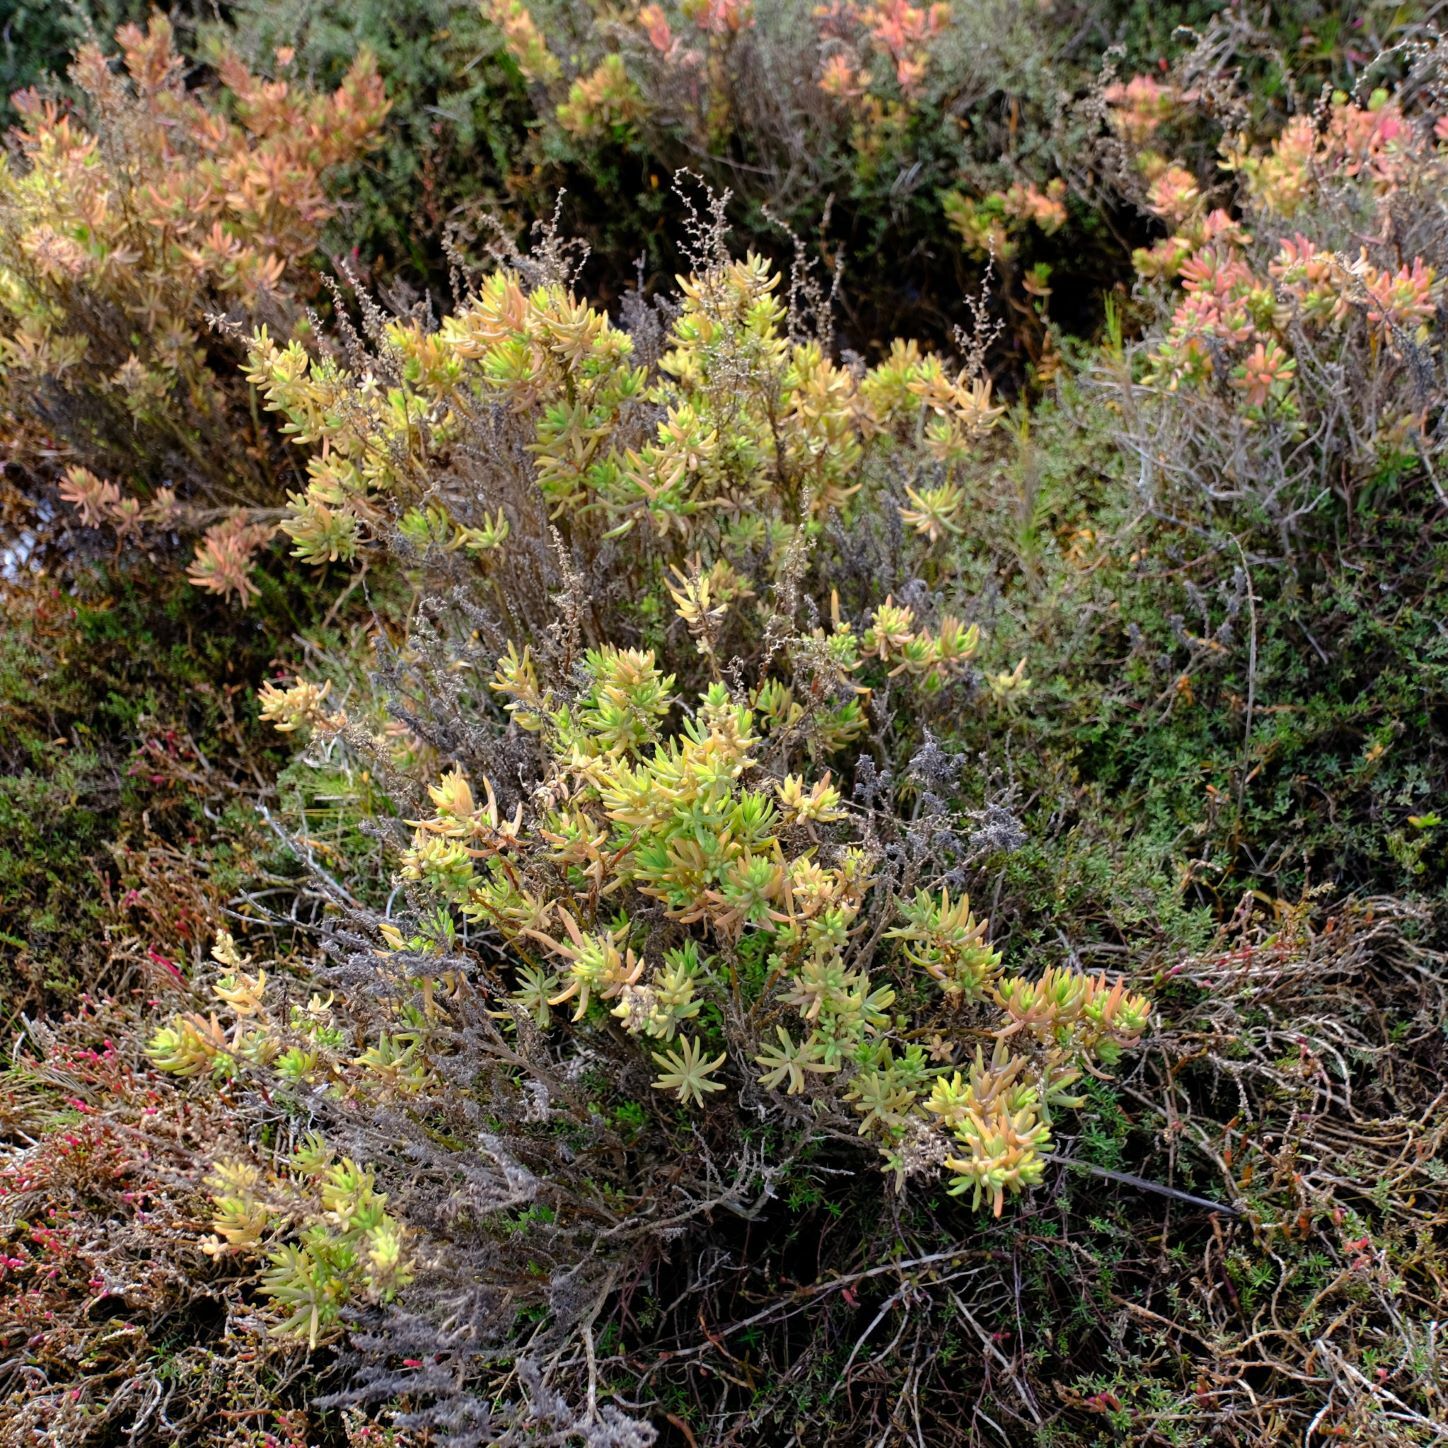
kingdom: Plantae
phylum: Tracheophyta
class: Magnoliopsida
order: Caryophyllales
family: Amaranthaceae
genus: Suaeda
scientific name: Suaeda australis
